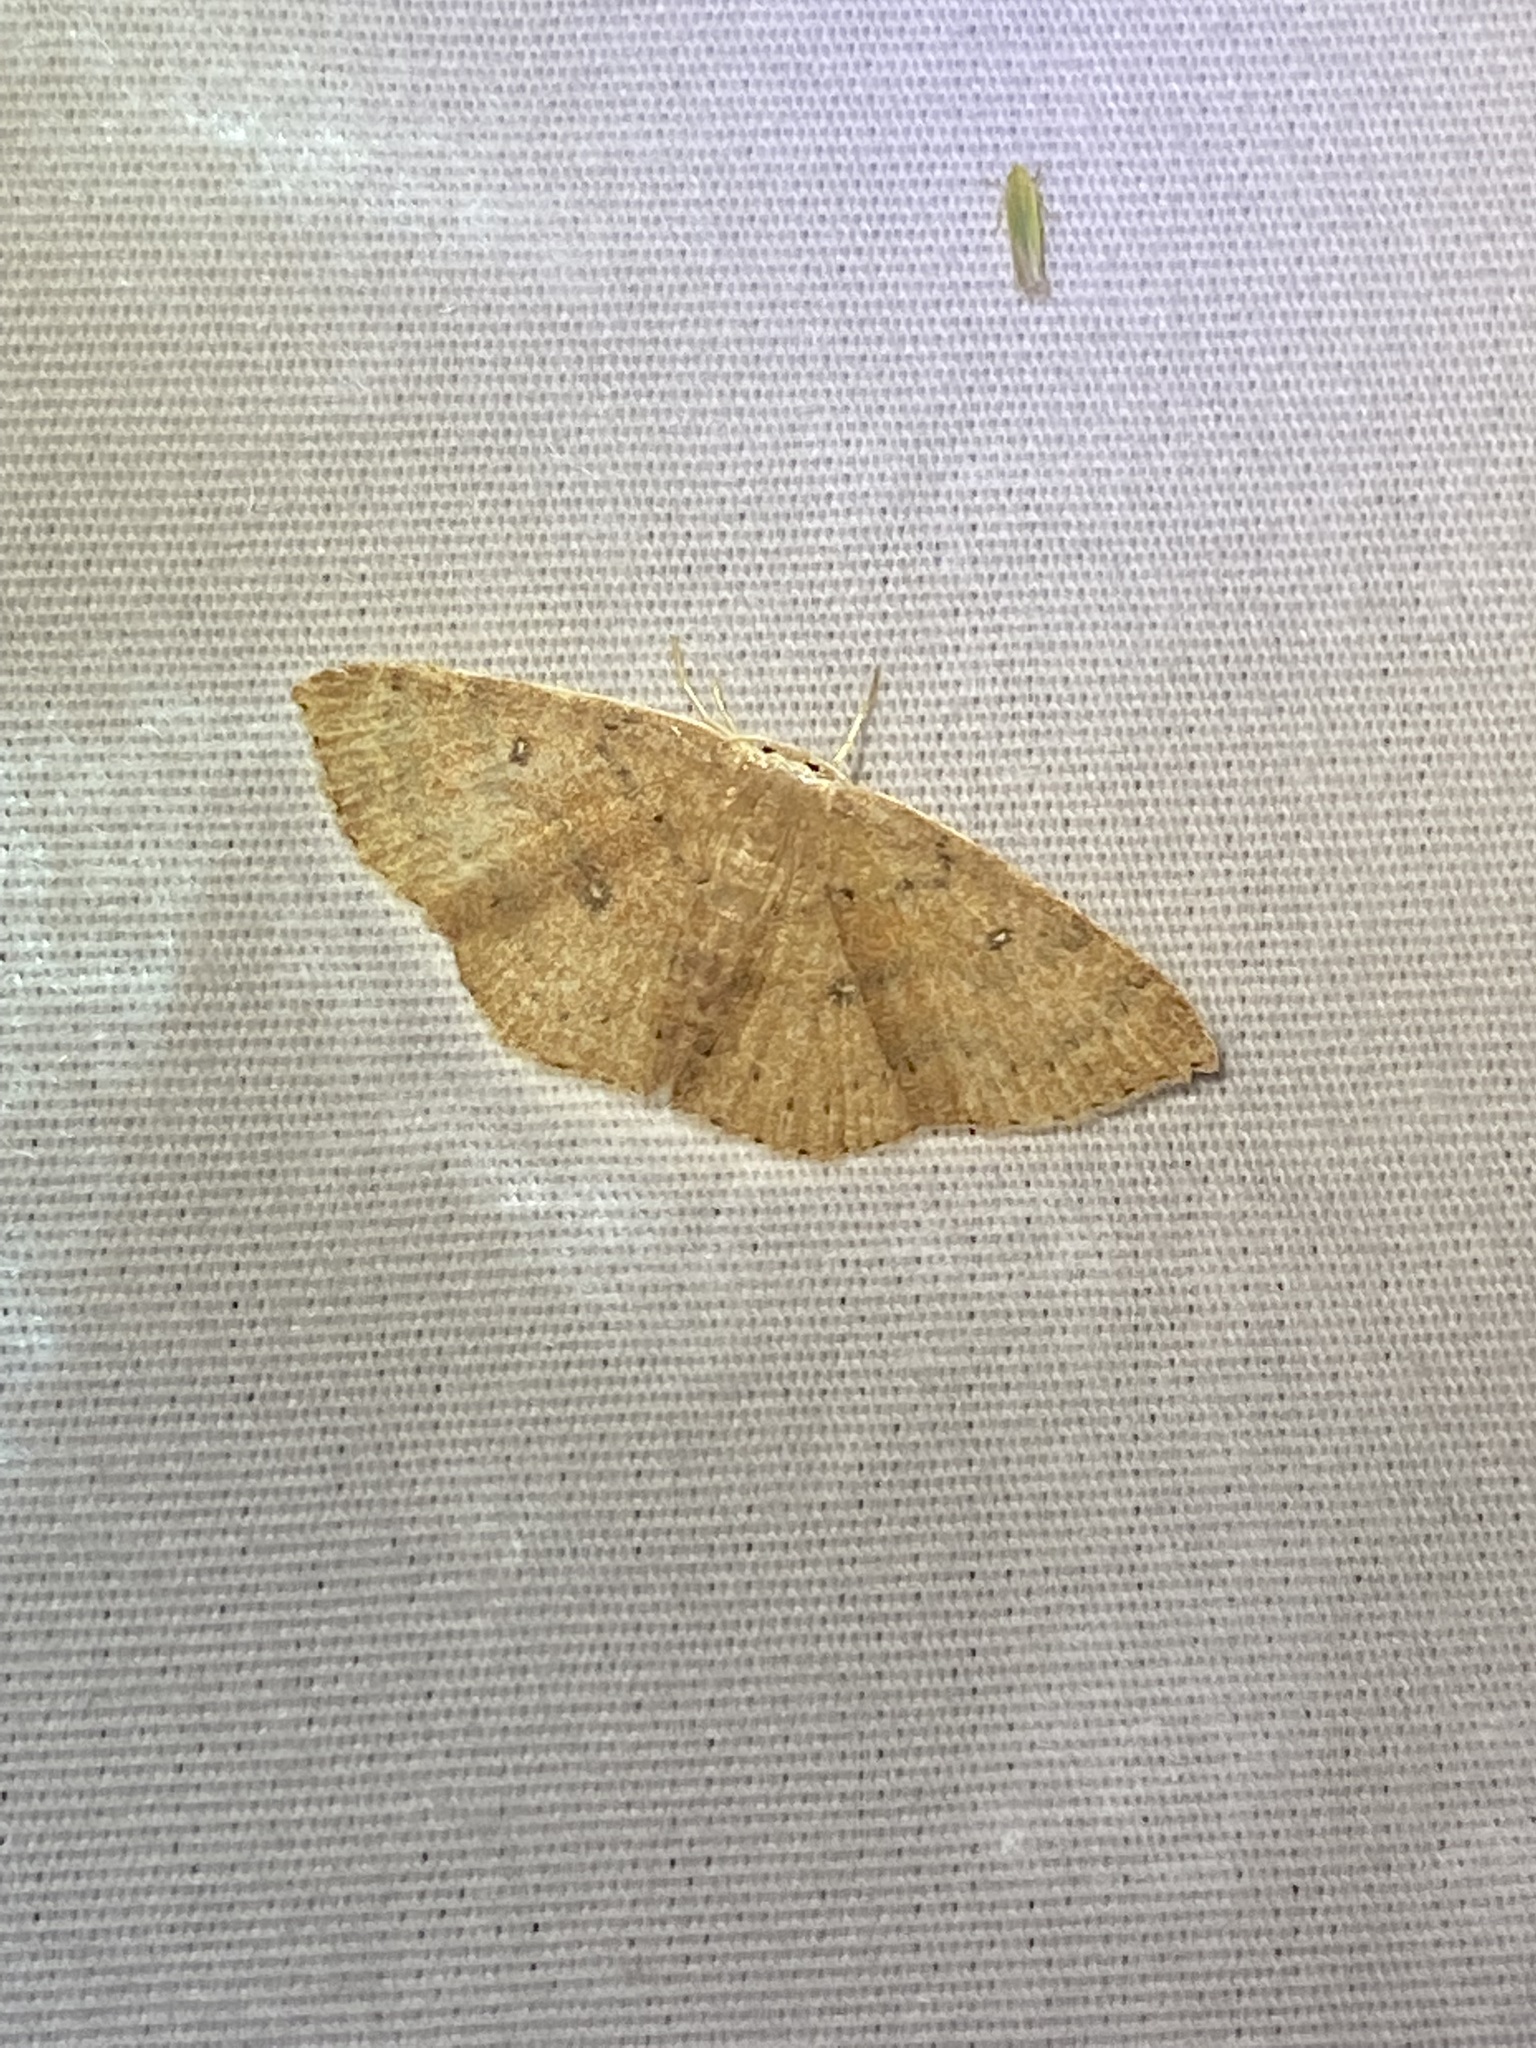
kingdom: Animalia
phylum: Arthropoda
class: Insecta
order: Lepidoptera
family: Geometridae
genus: Cyclophora
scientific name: Cyclophora packardi
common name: Packard's wave
